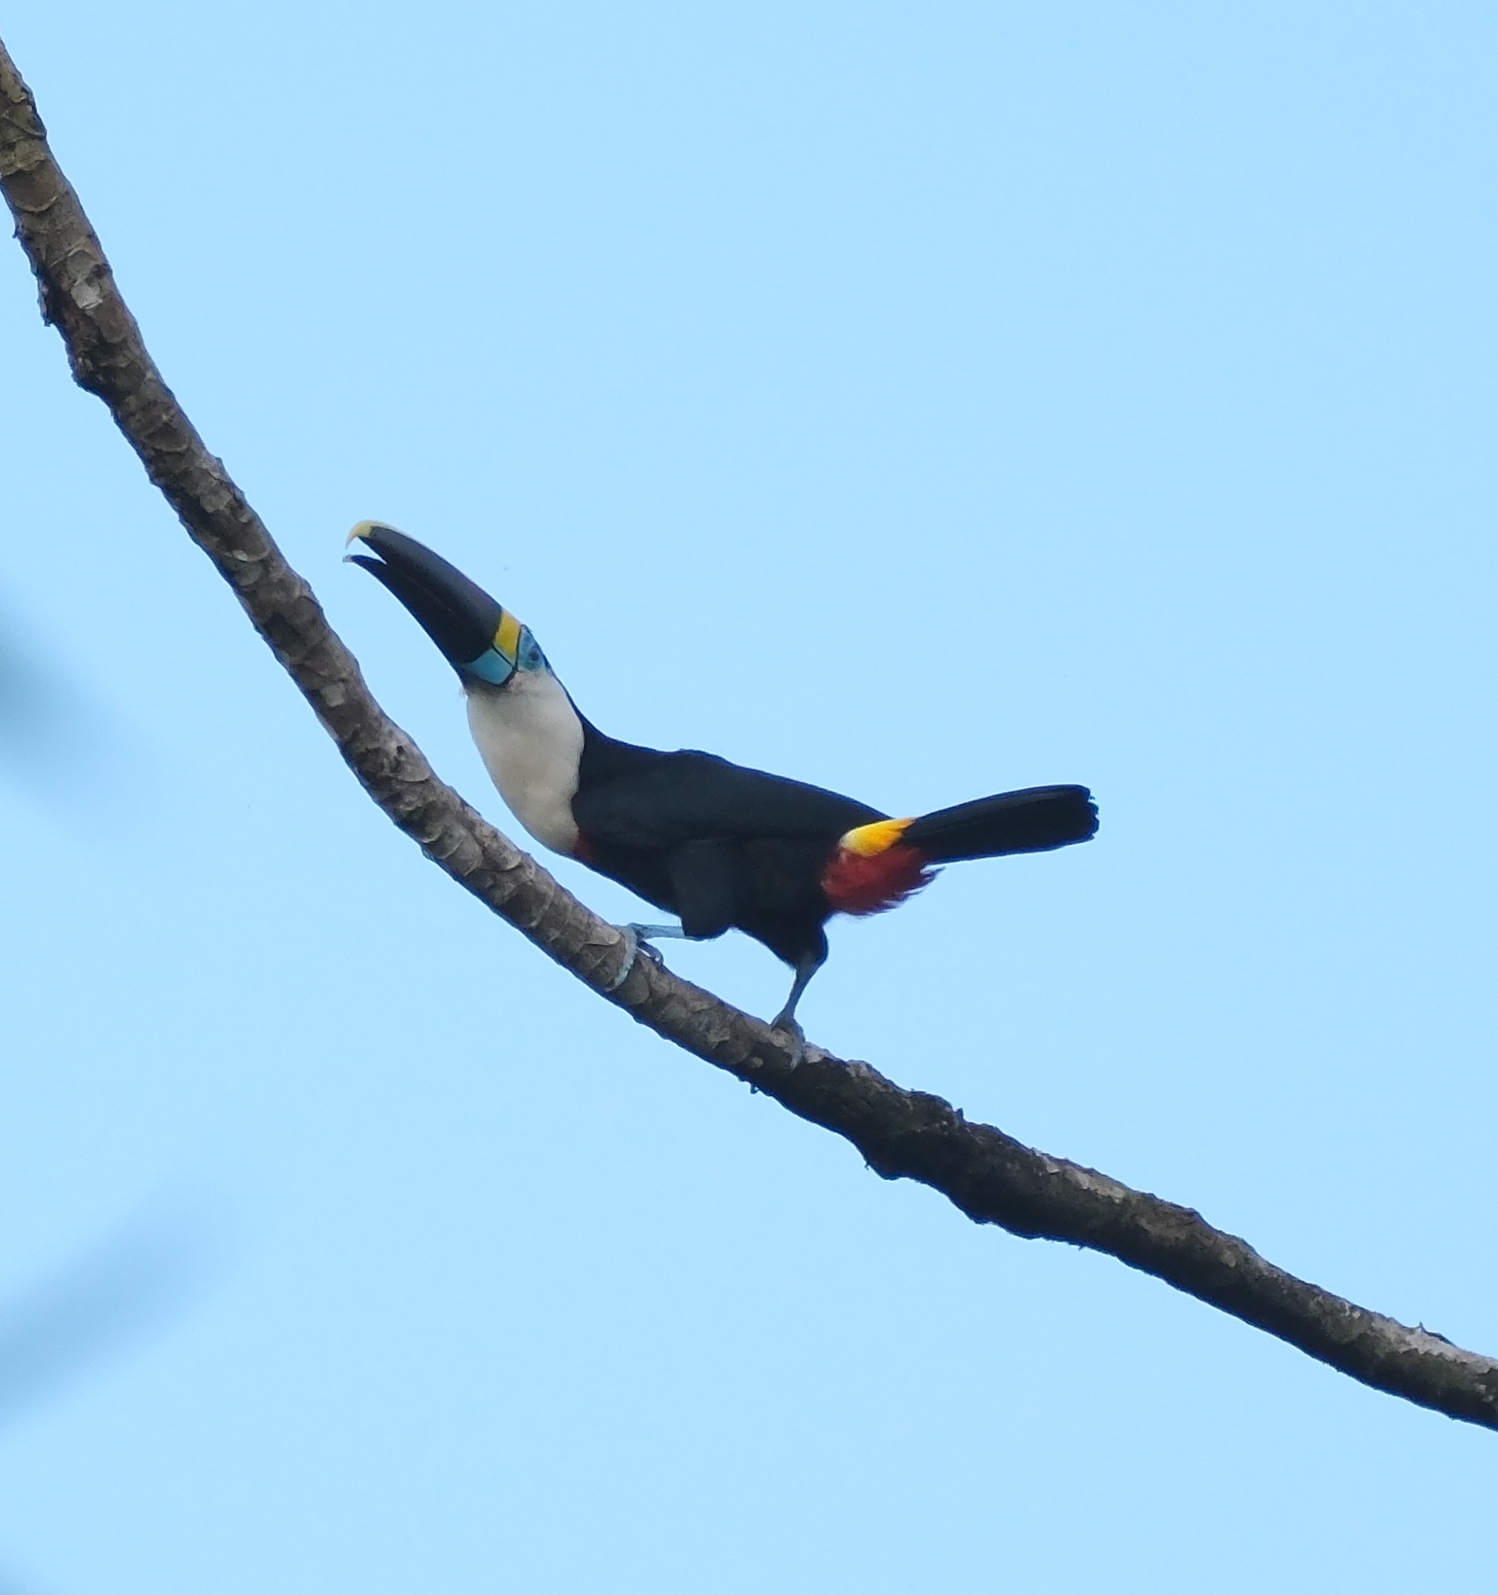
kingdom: Animalia
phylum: Chordata
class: Aves
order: Piciformes
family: Ramphastidae
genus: Ramphastos
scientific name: Ramphastos tucanus
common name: White-throated toucan
